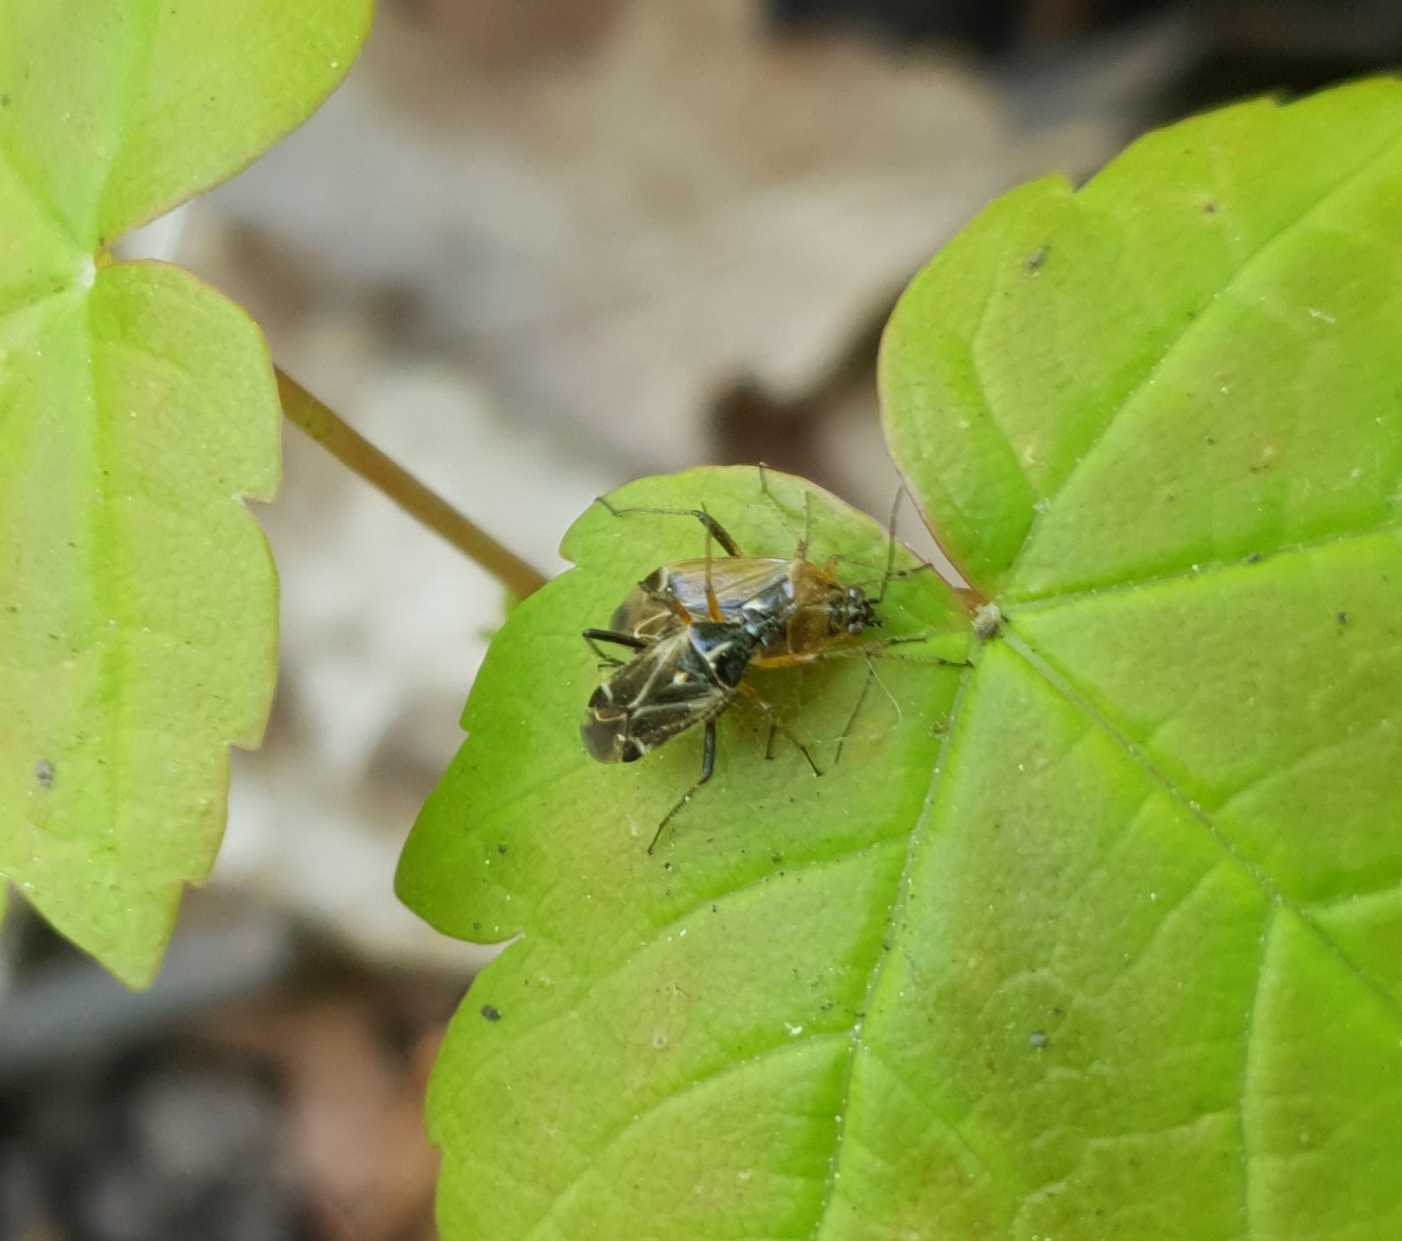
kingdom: Animalia
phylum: Arthropoda
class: Insecta
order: Hemiptera
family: Miridae
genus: Harpocera
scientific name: Harpocera thoracica
